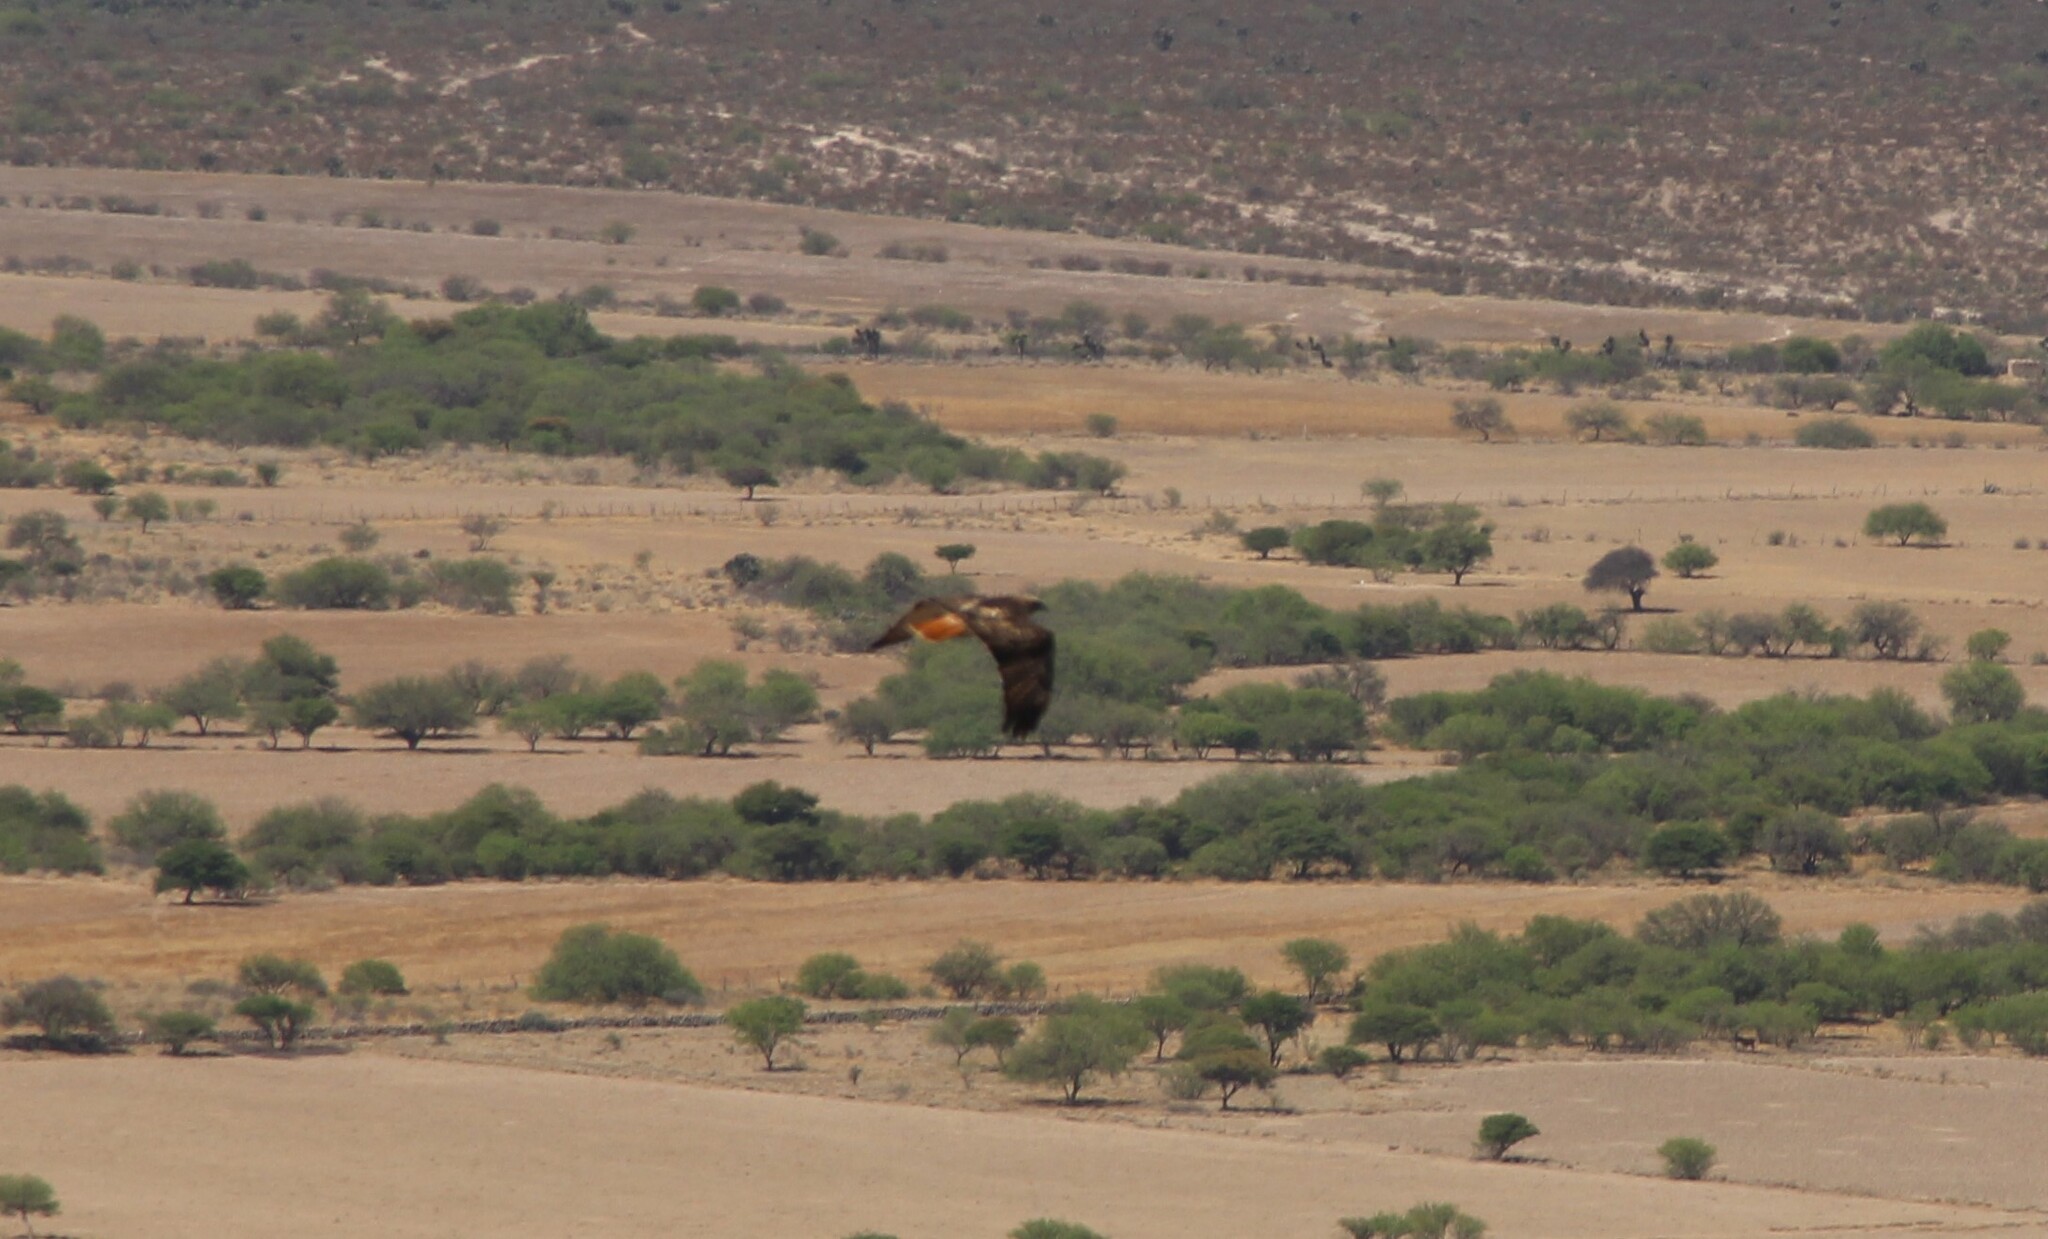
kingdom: Animalia
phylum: Chordata
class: Aves
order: Accipitriformes
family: Accipitridae
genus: Buteo
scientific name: Buteo jamaicensis
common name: Red-tailed hawk
